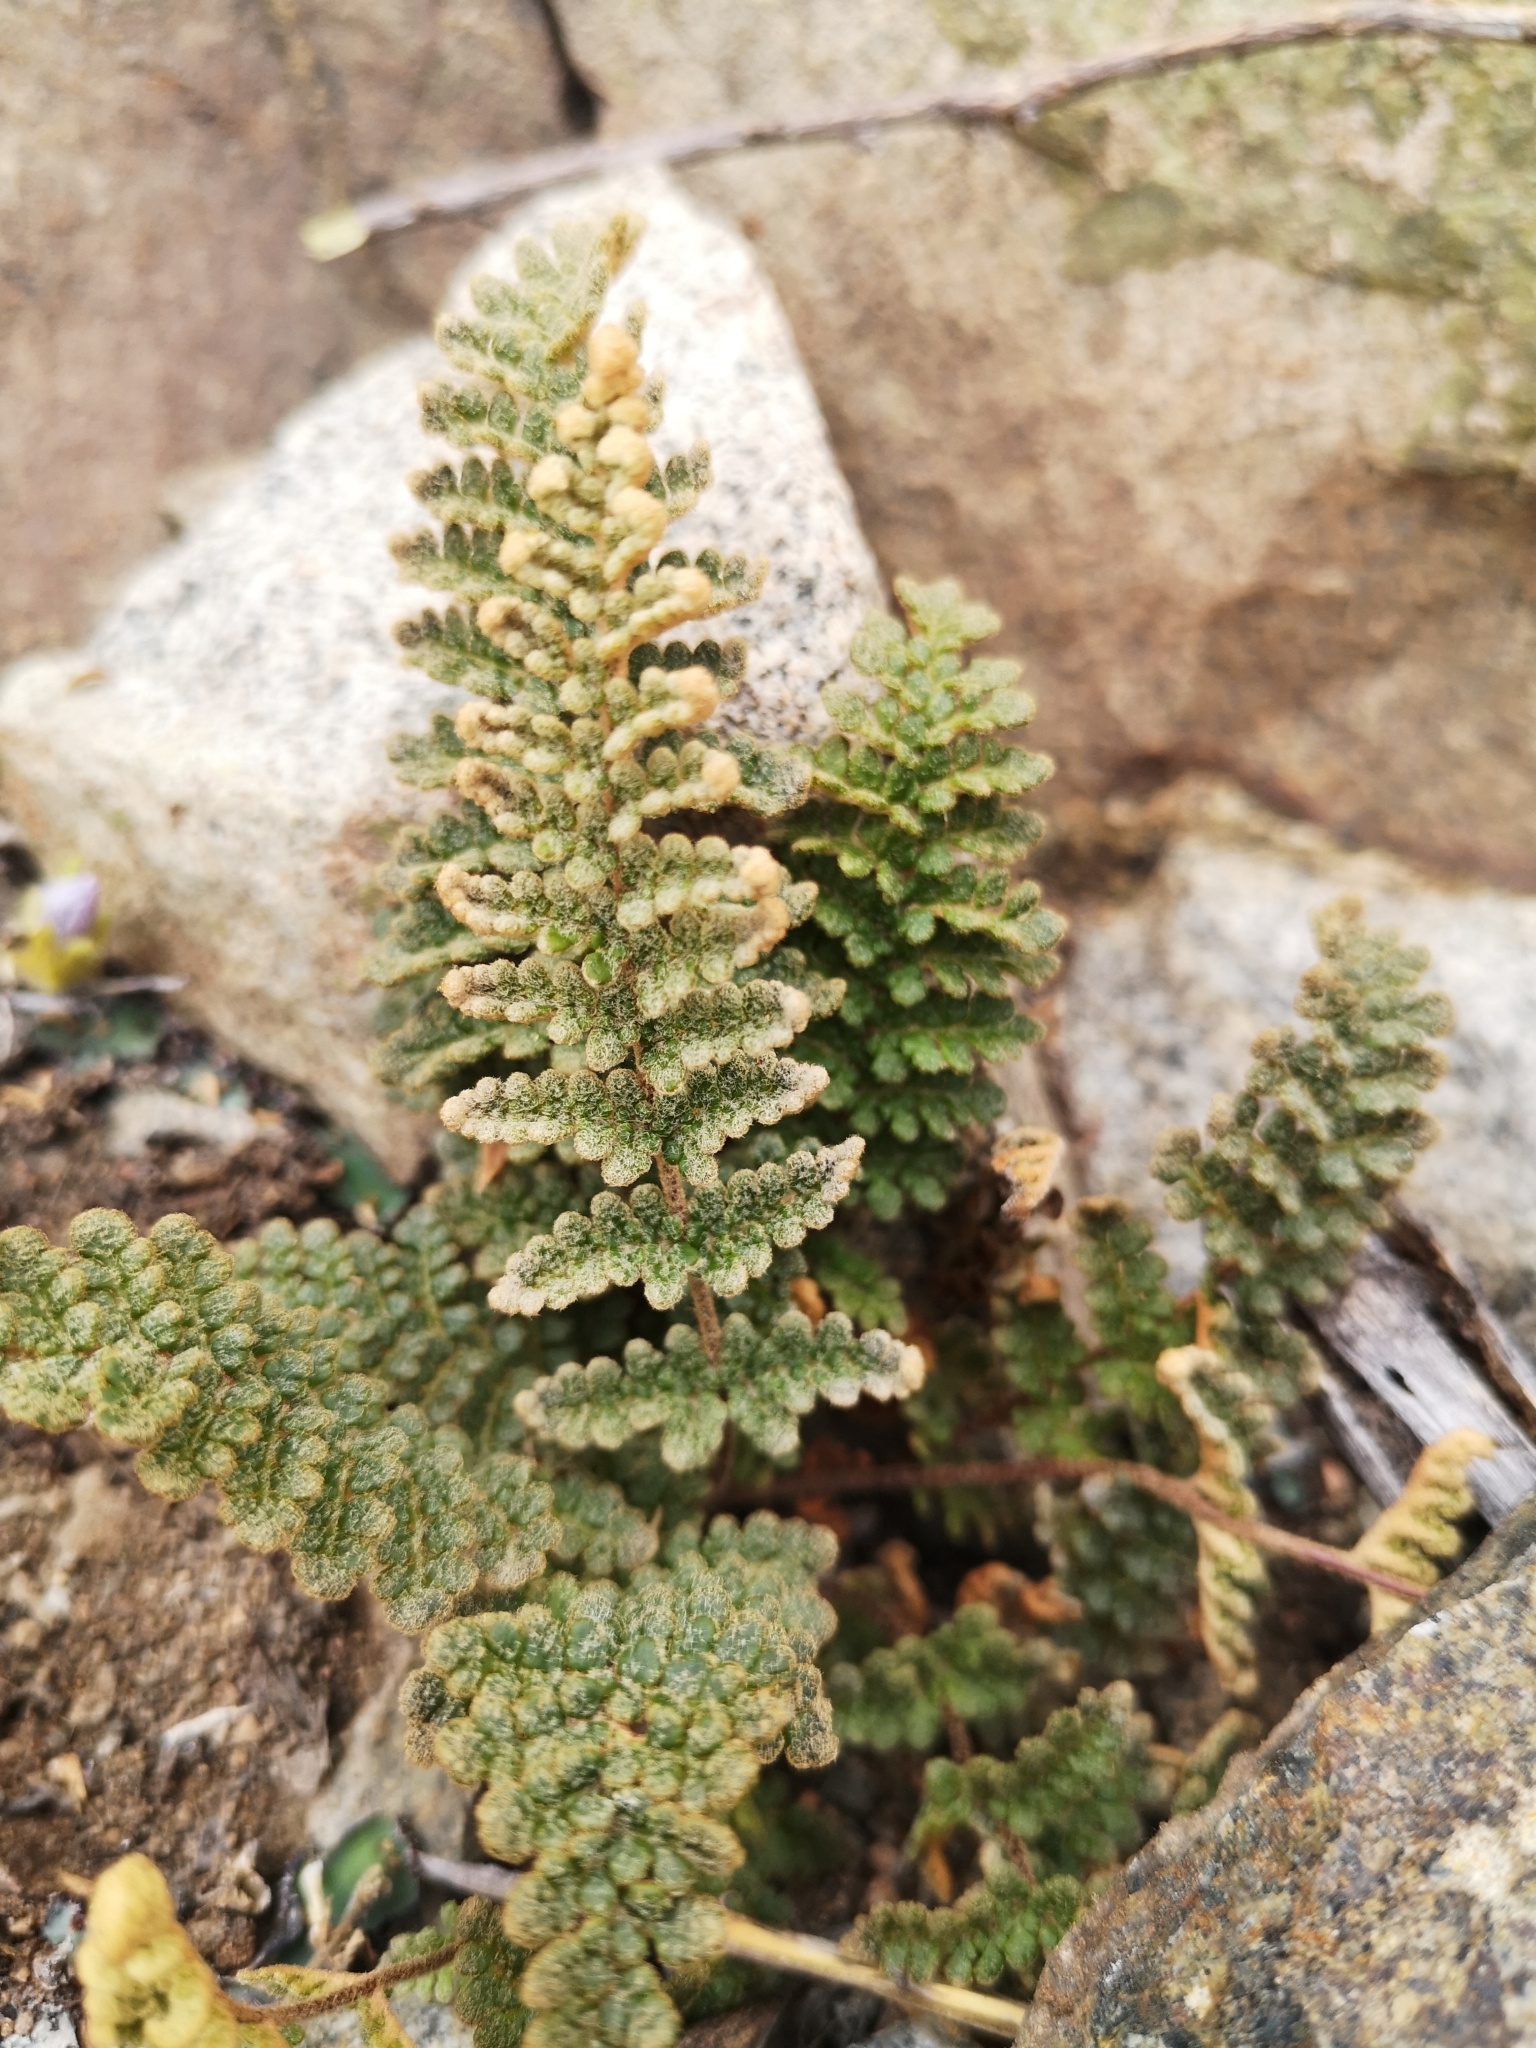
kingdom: Plantae
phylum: Tracheophyta
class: Polypodiopsida
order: Polypodiales
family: Pteridaceae
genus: Cheilanthes
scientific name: Cheilanthes mollis
